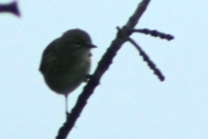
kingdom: Animalia
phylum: Chordata
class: Aves
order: Passeriformes
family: Parulidae
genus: Setophaga
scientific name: Setophaga coronata
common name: Myrtle warbler
